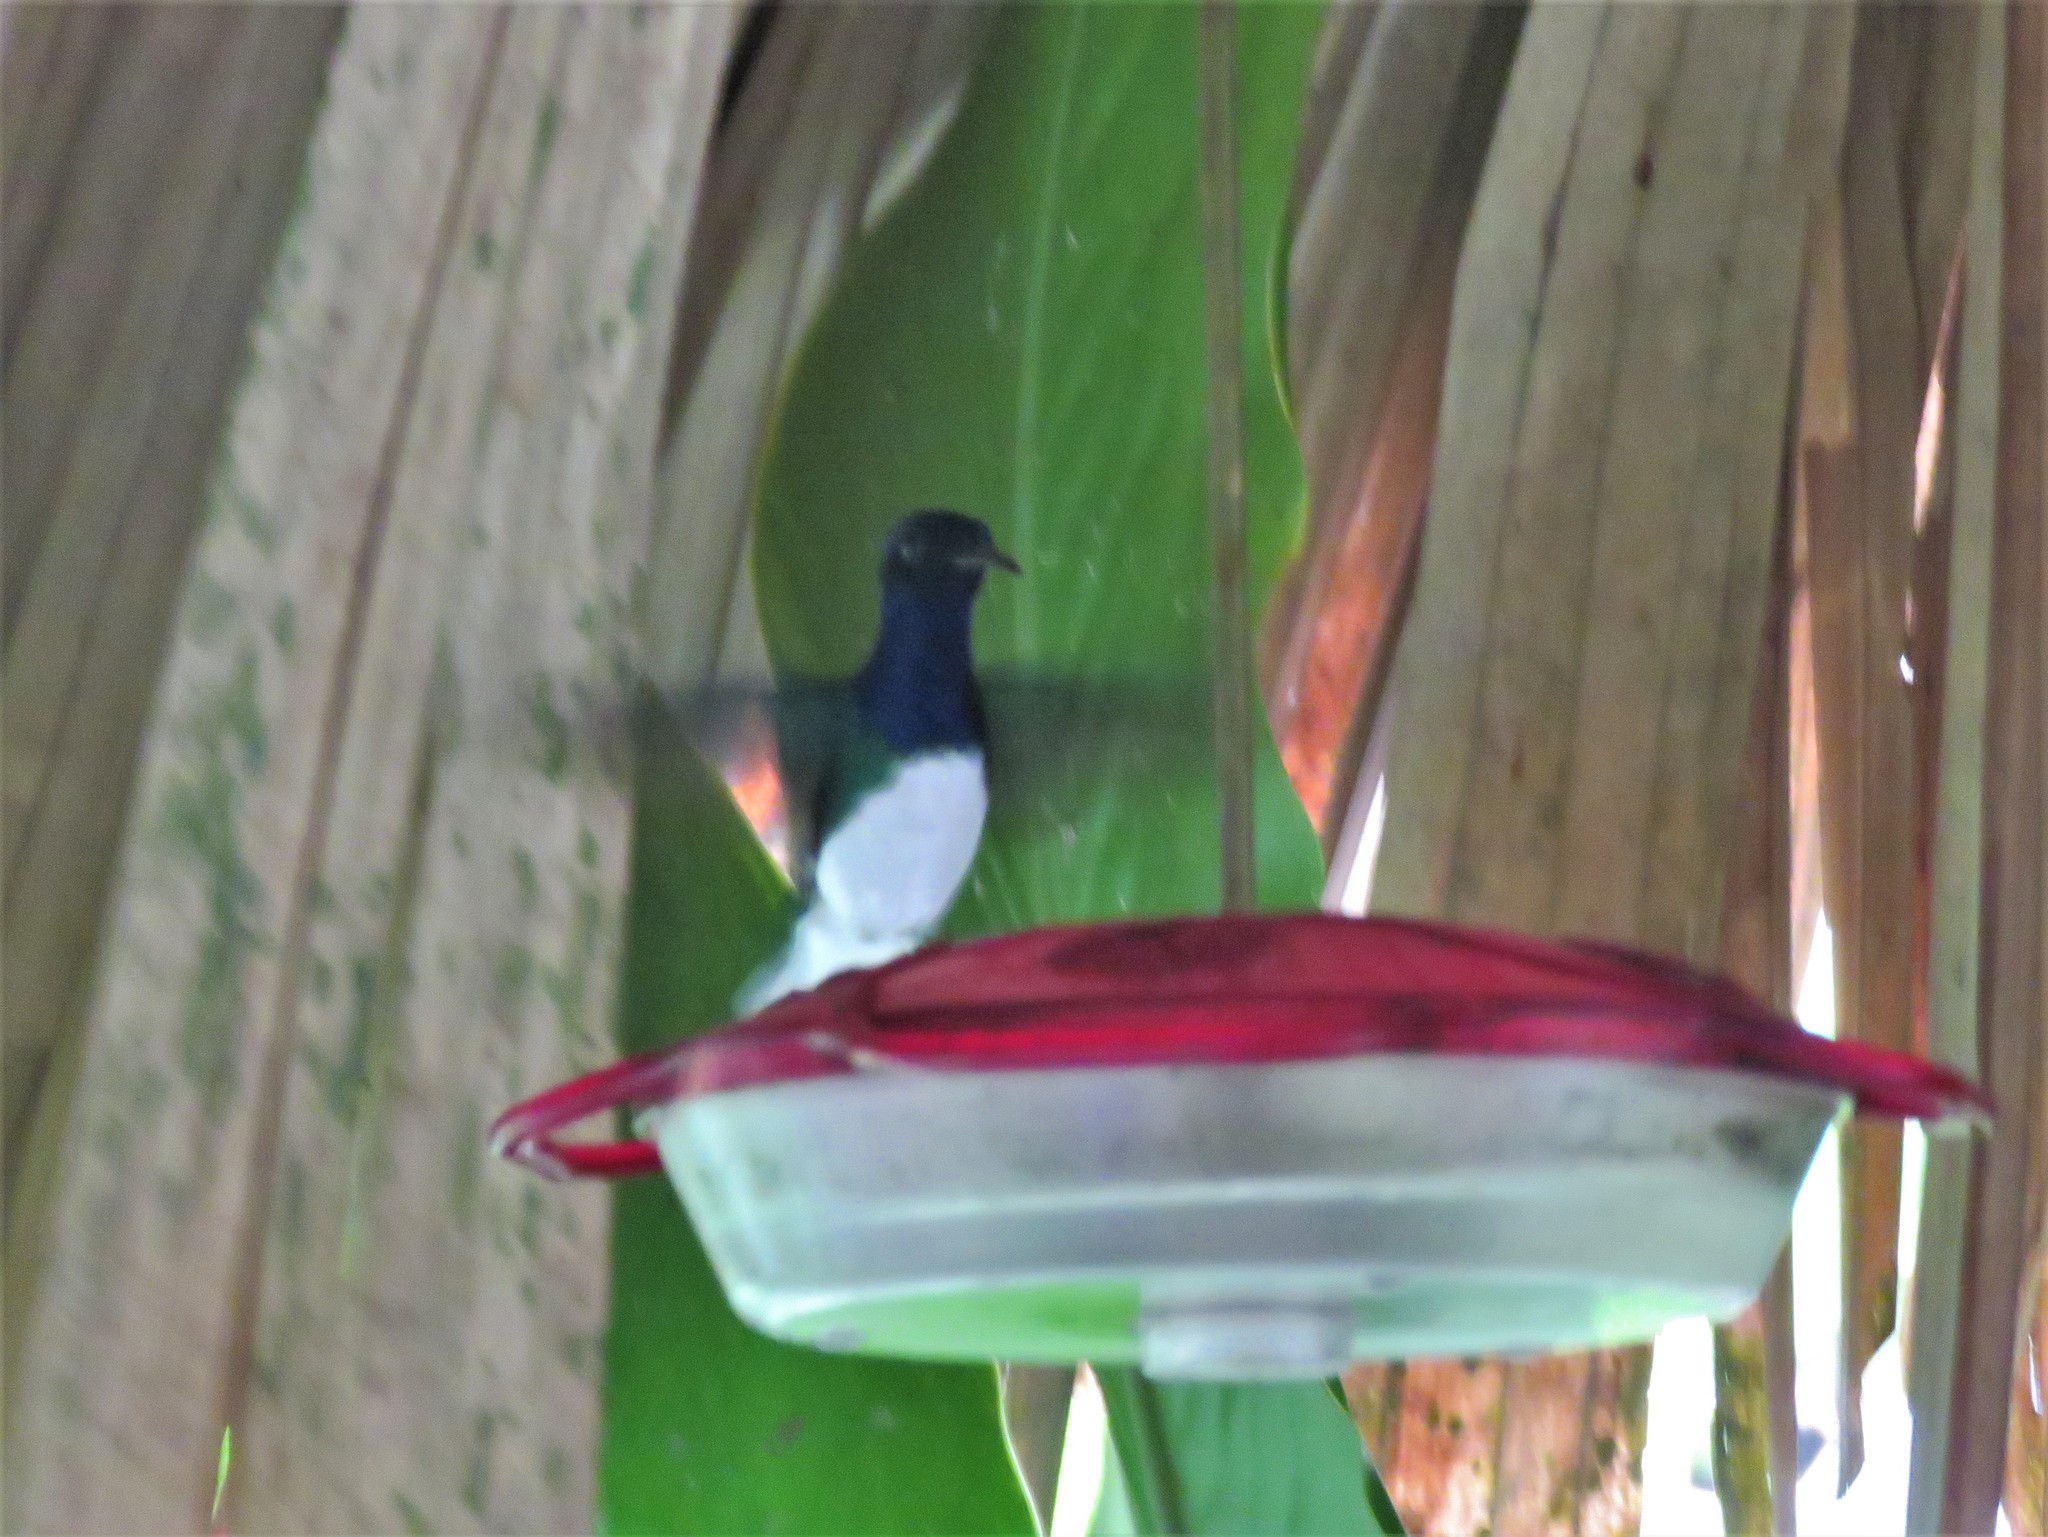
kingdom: Animalia
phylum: Chordata
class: Aves
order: Apodiformes
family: Trochilidae
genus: Florisuga
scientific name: Florisuga mellivora
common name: White-necked jacobin
